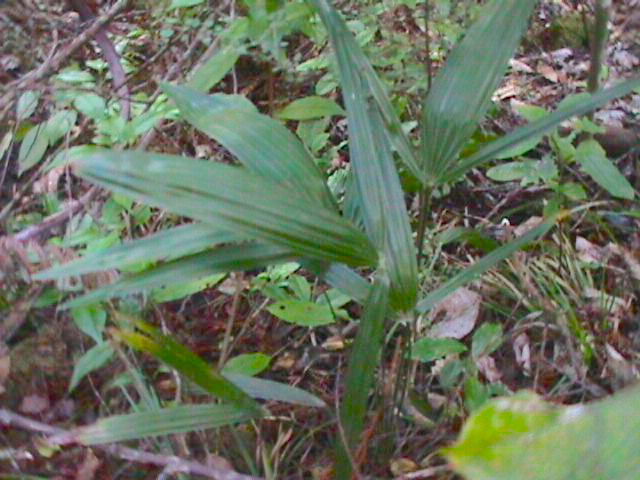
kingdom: Plantae
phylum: Tracheophyta
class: Liliopsida
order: Arecales
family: Arecaceae
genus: Trachycarpus
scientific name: Trachycarpus fortunei
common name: Chusan palm
